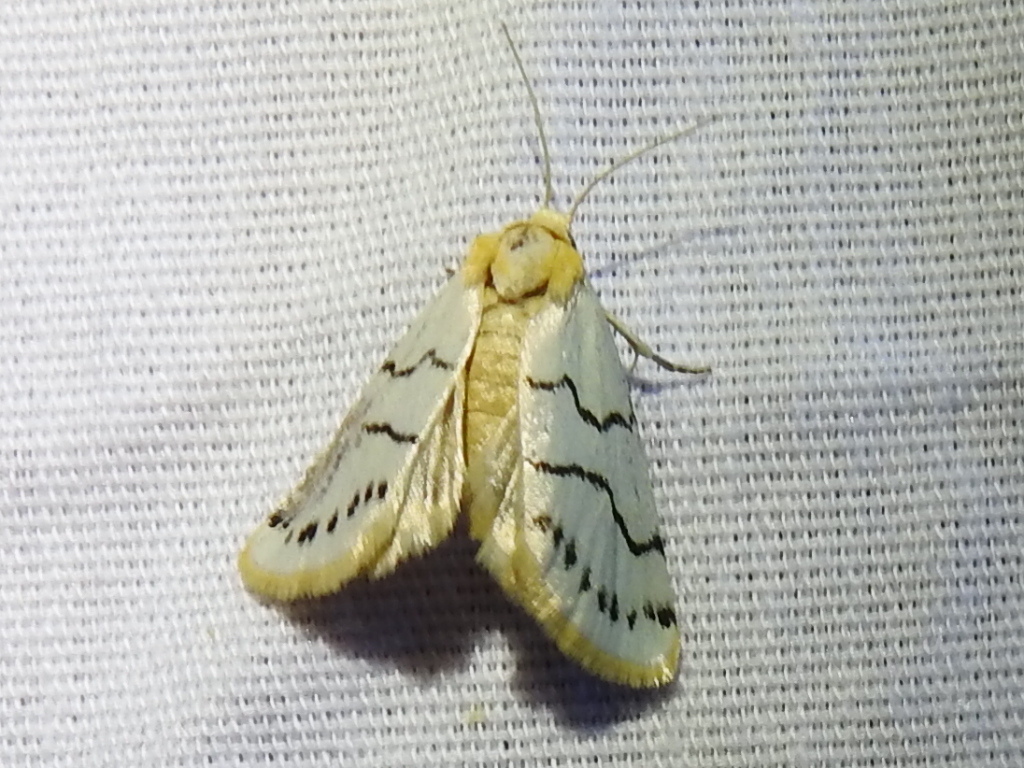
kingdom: Animalia
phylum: Arthropoda
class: Insecta
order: Lepidoptera
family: Noctuidae
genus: Lineostriastiria
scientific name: Lineostriastiria sexseriata
